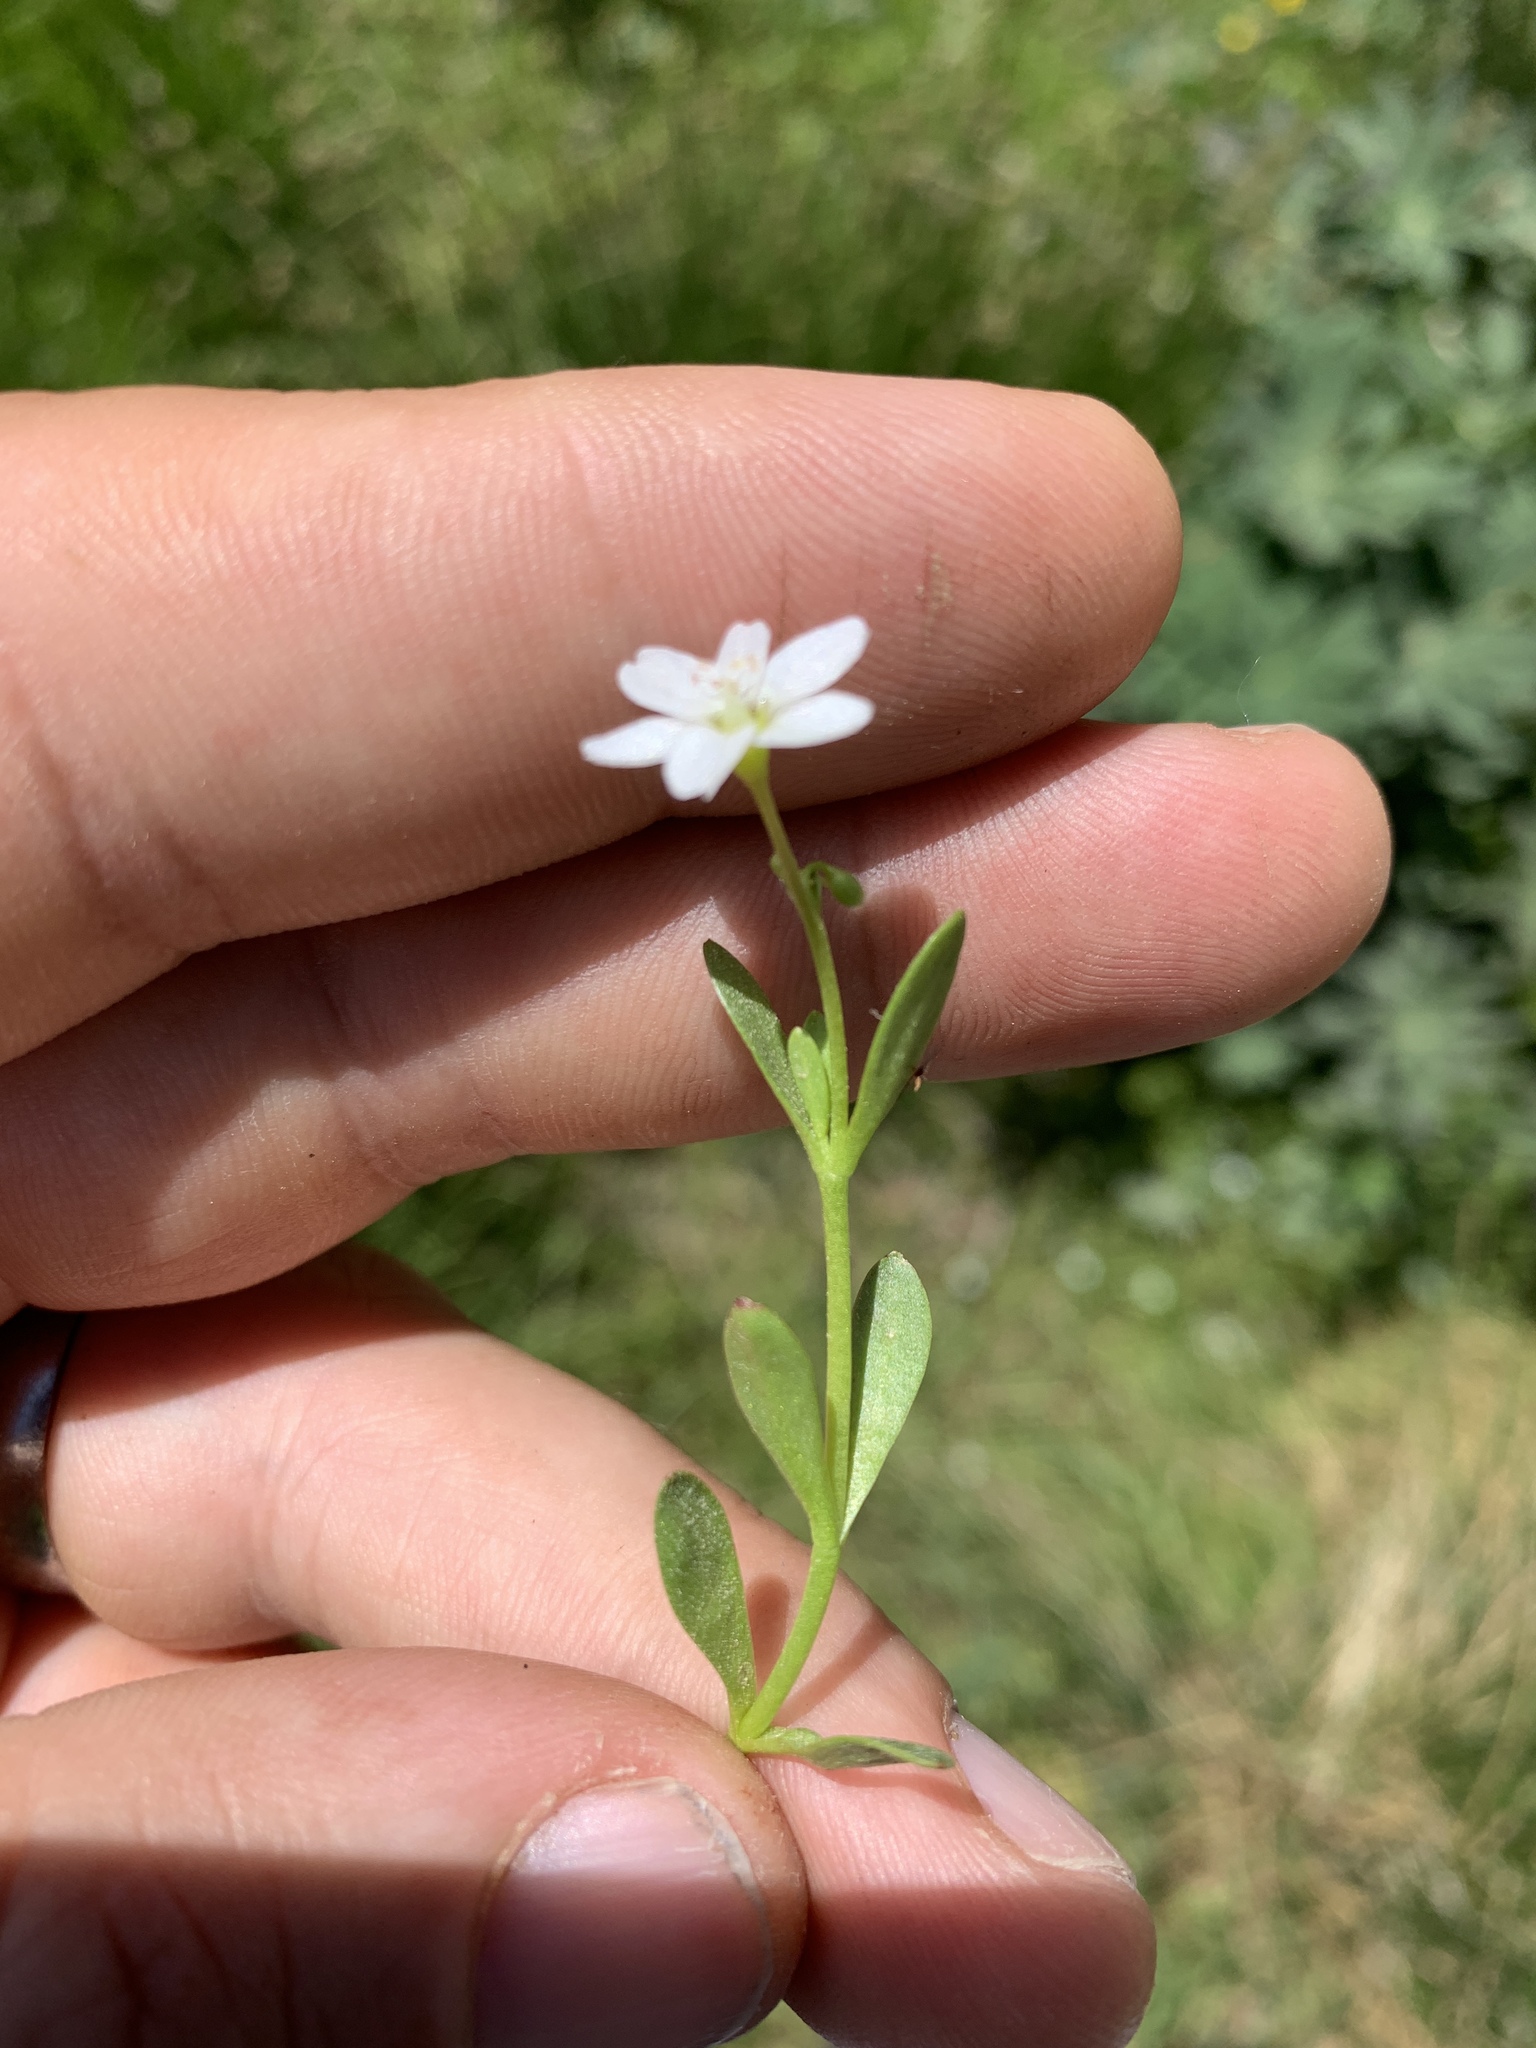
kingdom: Plantae
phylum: Tracheophyta
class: Magnoliopsida
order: Caryophyllales
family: Montiaceae
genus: Montia
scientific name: Montia chamissoi
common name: Chamisso's candyflower
